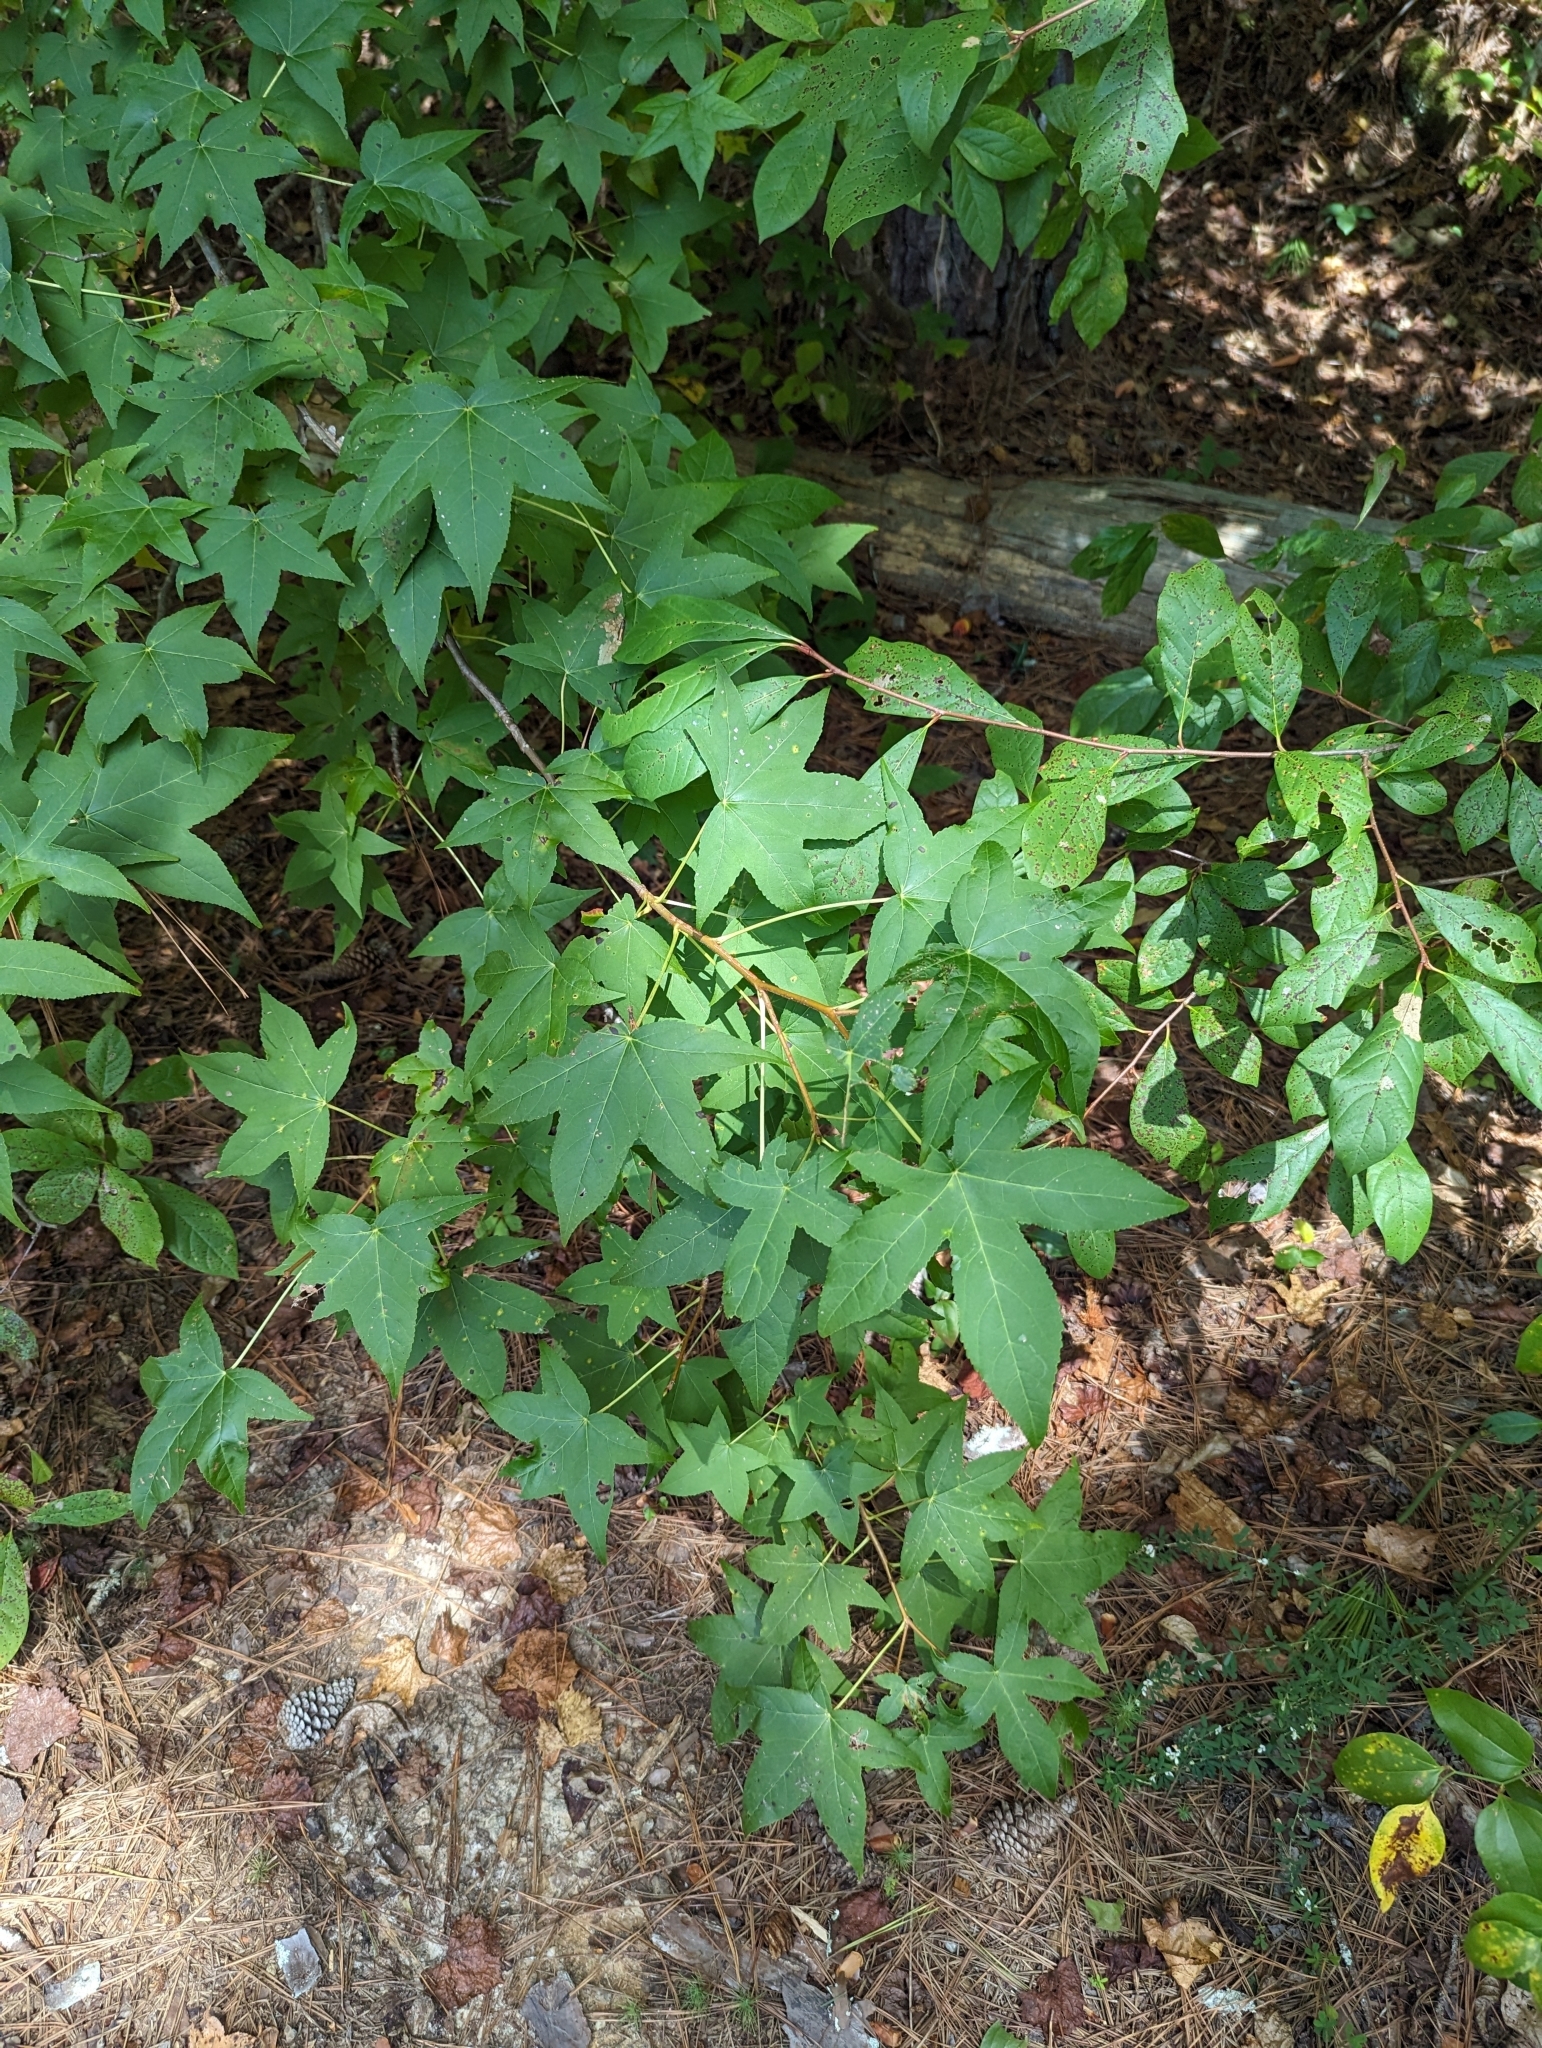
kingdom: Plantae
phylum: Tracheophyta
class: Magnoliopsida
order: Saxifragales
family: Altingiaceae
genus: Liquidambar
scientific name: Liquidambar styraciflua
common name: Sweet gum
